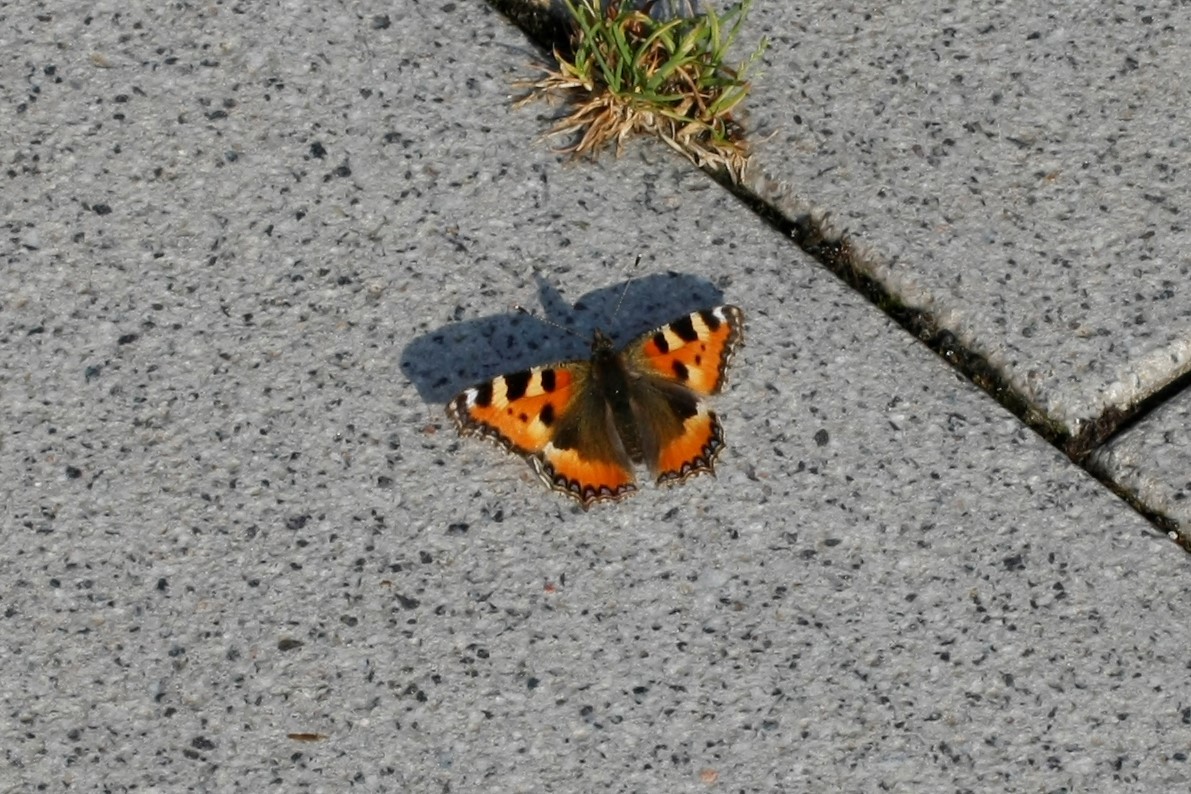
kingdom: Animalia
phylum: Arthropoda
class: Insecta
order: Lepidoptera
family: Nymphalidae
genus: Aglais
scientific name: Aglais urticae
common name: Small tortoiseshell
